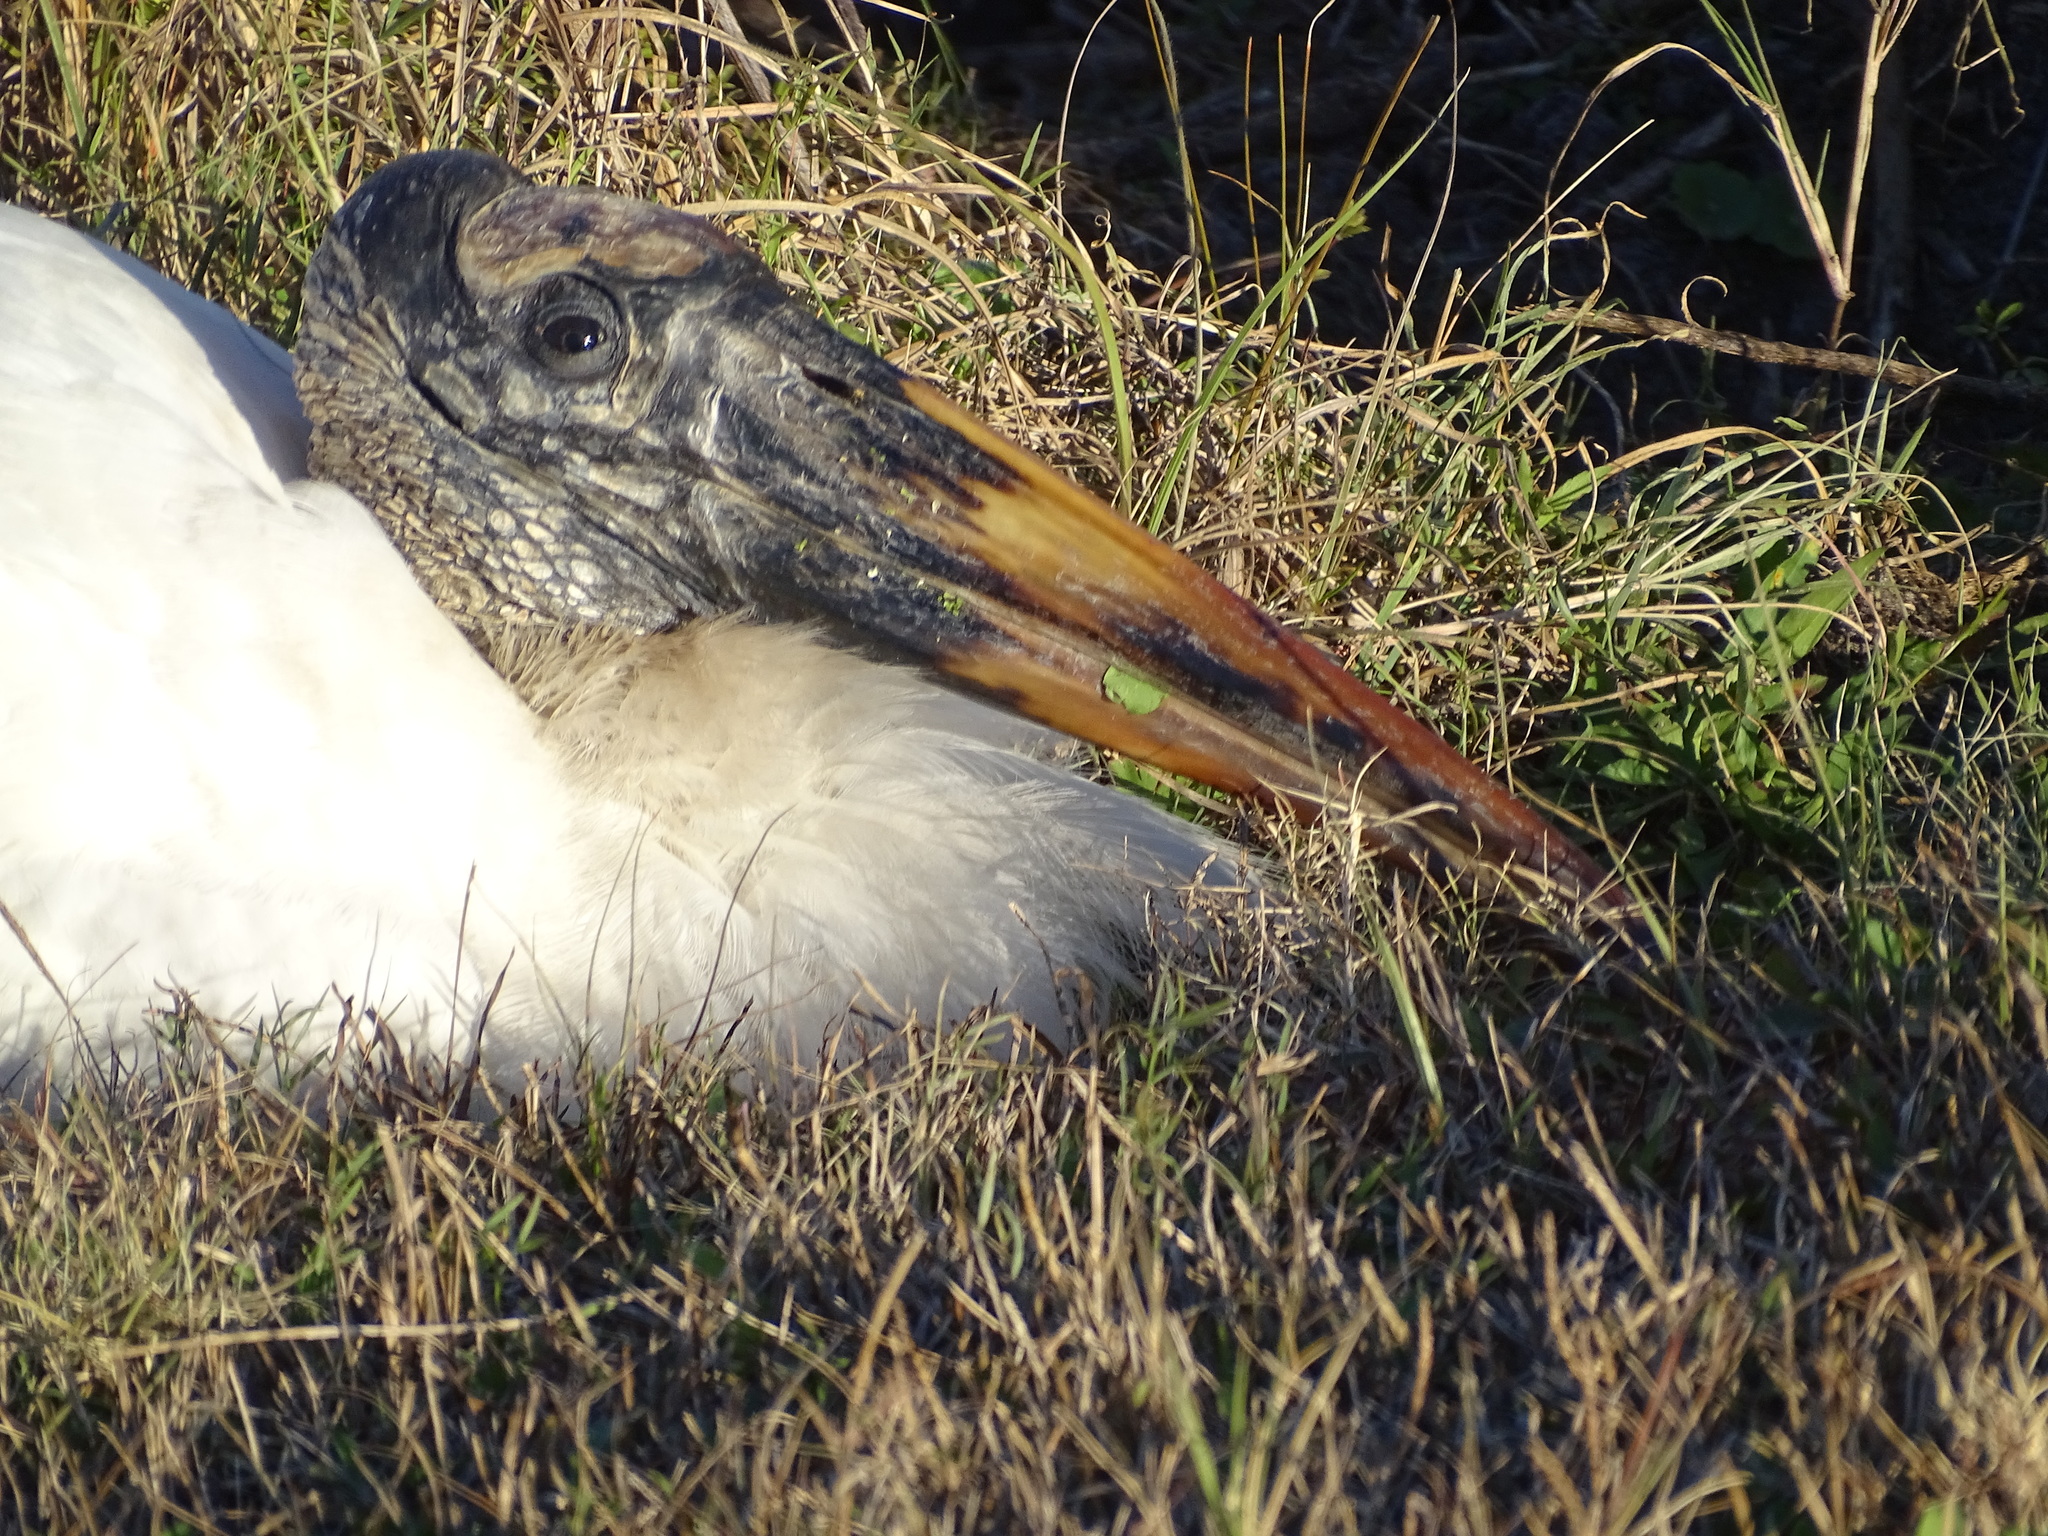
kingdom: Animalia
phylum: Chordata
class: Aves
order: Ciconiiformes
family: Ciconiidae
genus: Mycteria
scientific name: Mycteria americana
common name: Wood stork
